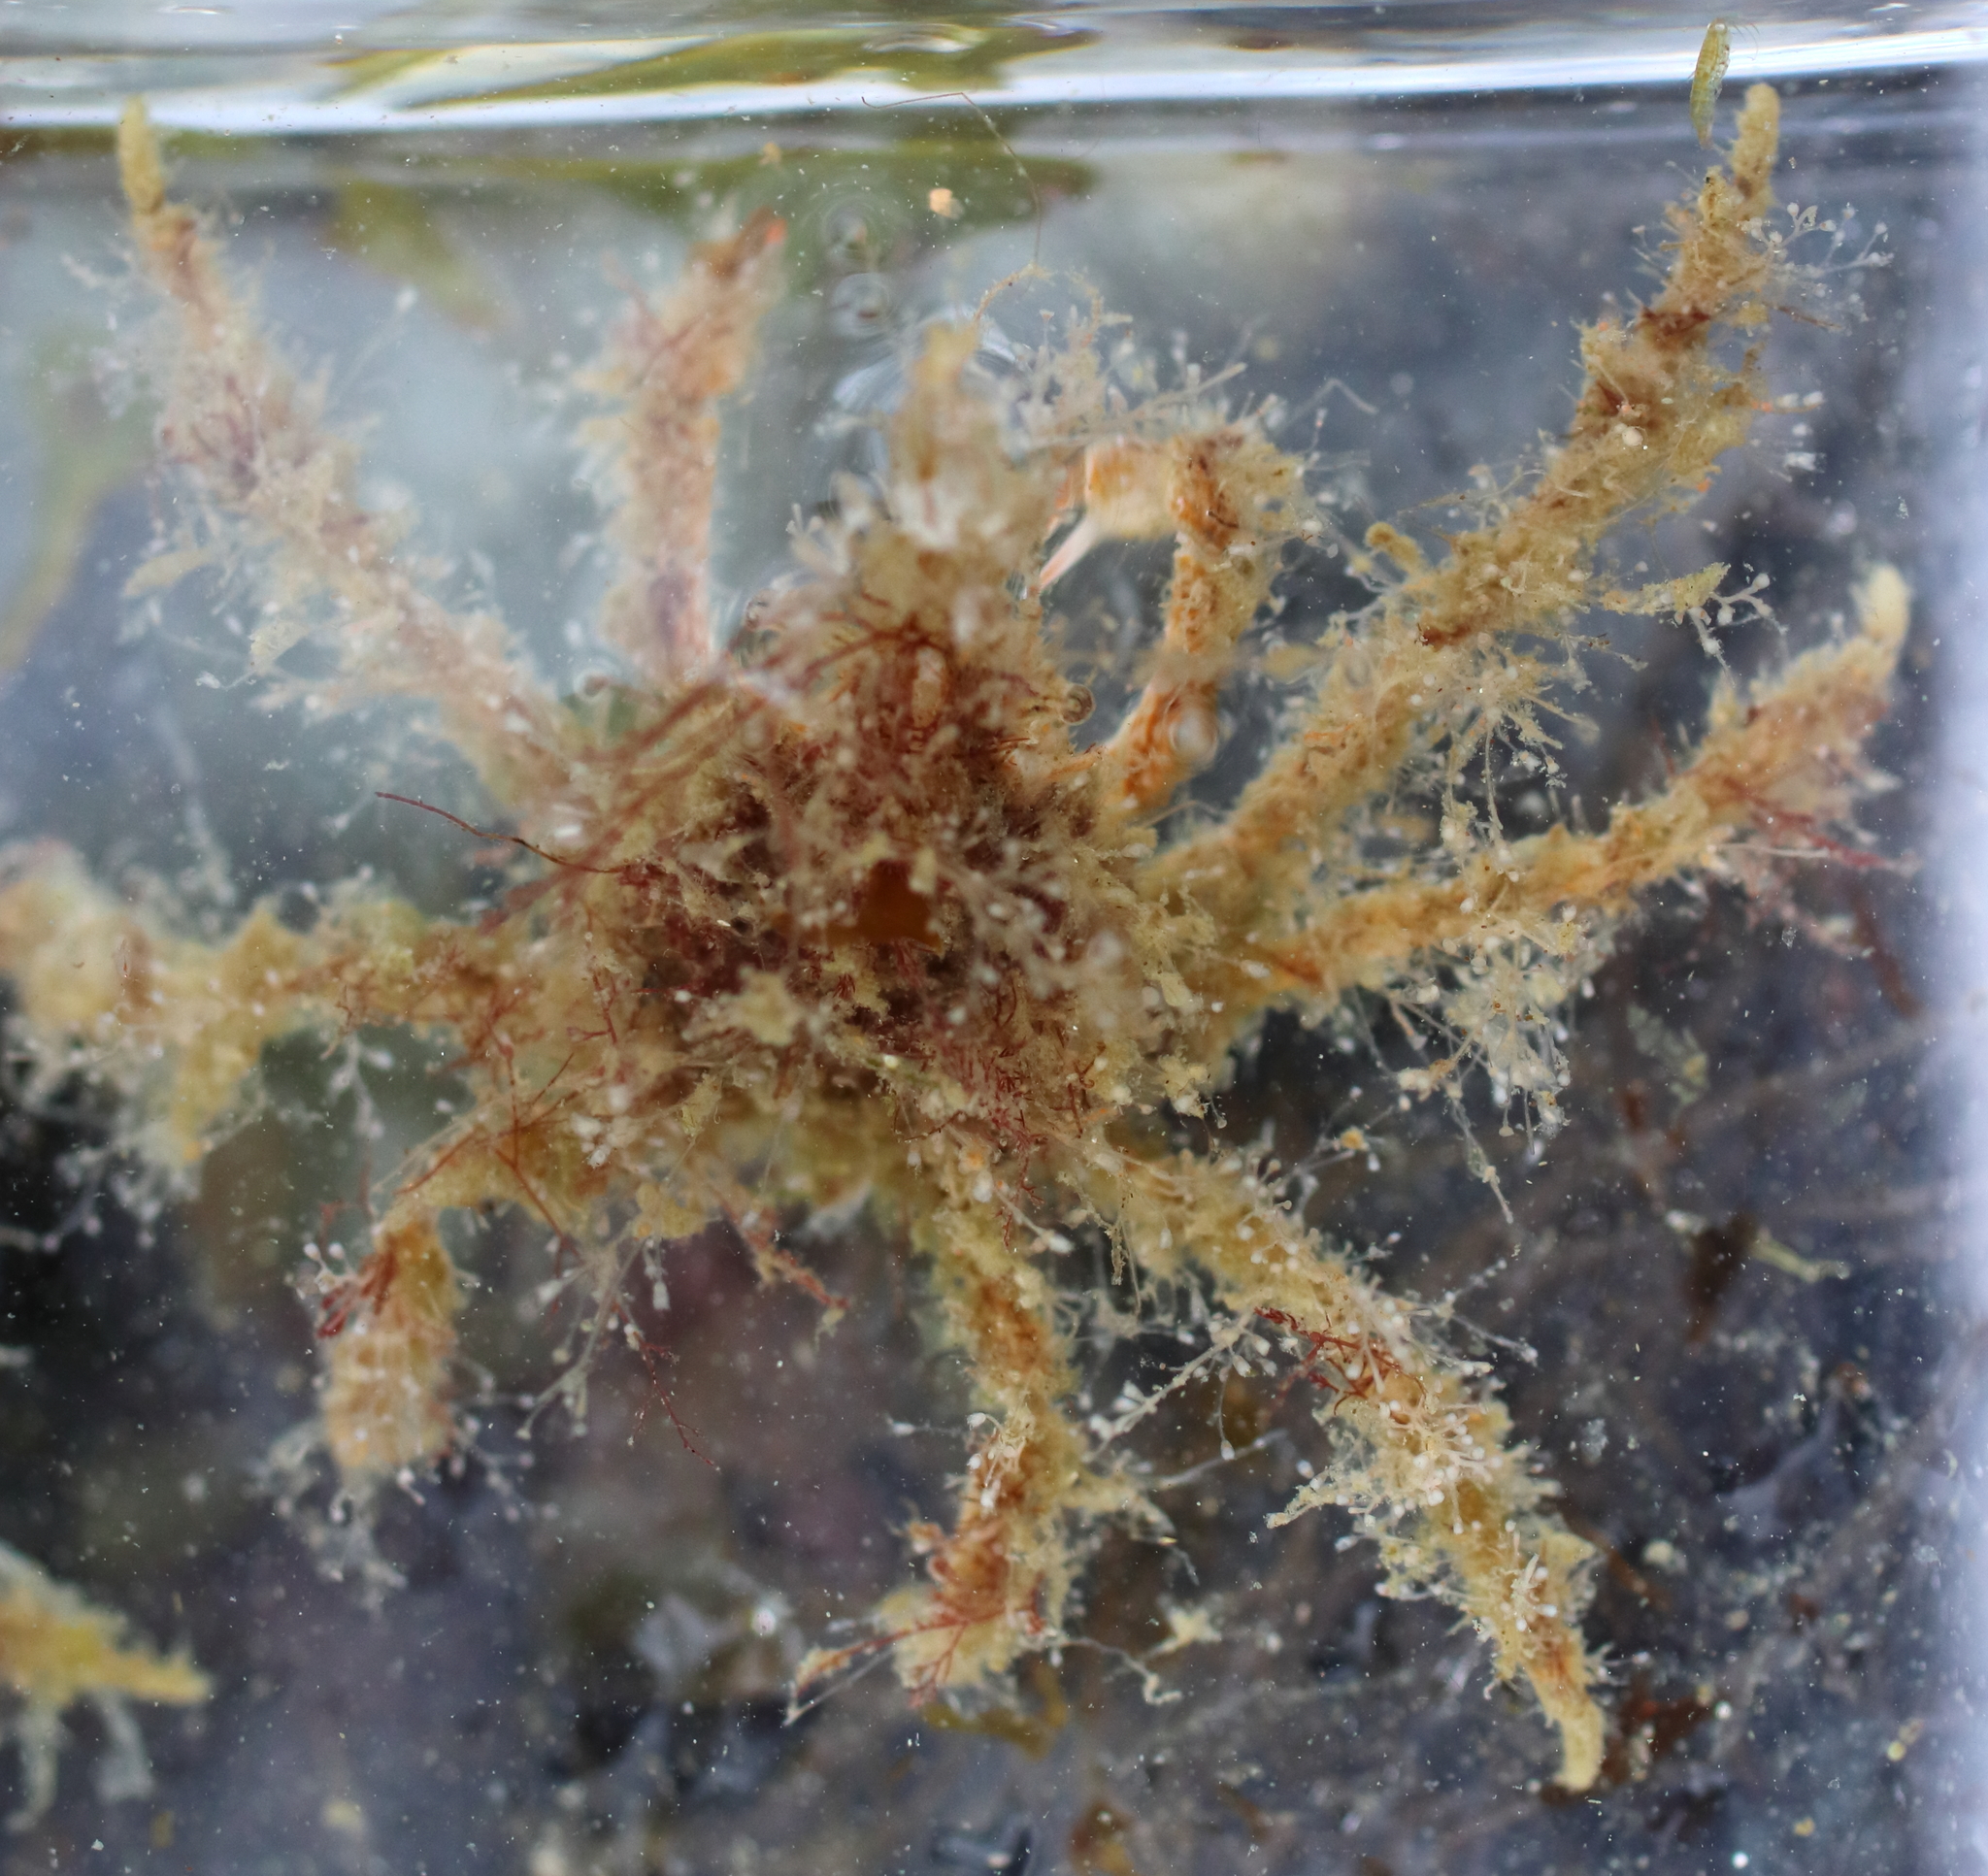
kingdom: Animalia
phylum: Arthropoda
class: Malacostraca
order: Decapoda
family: Oregoniidae
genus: Oregonia
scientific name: Oregonia gracilis
